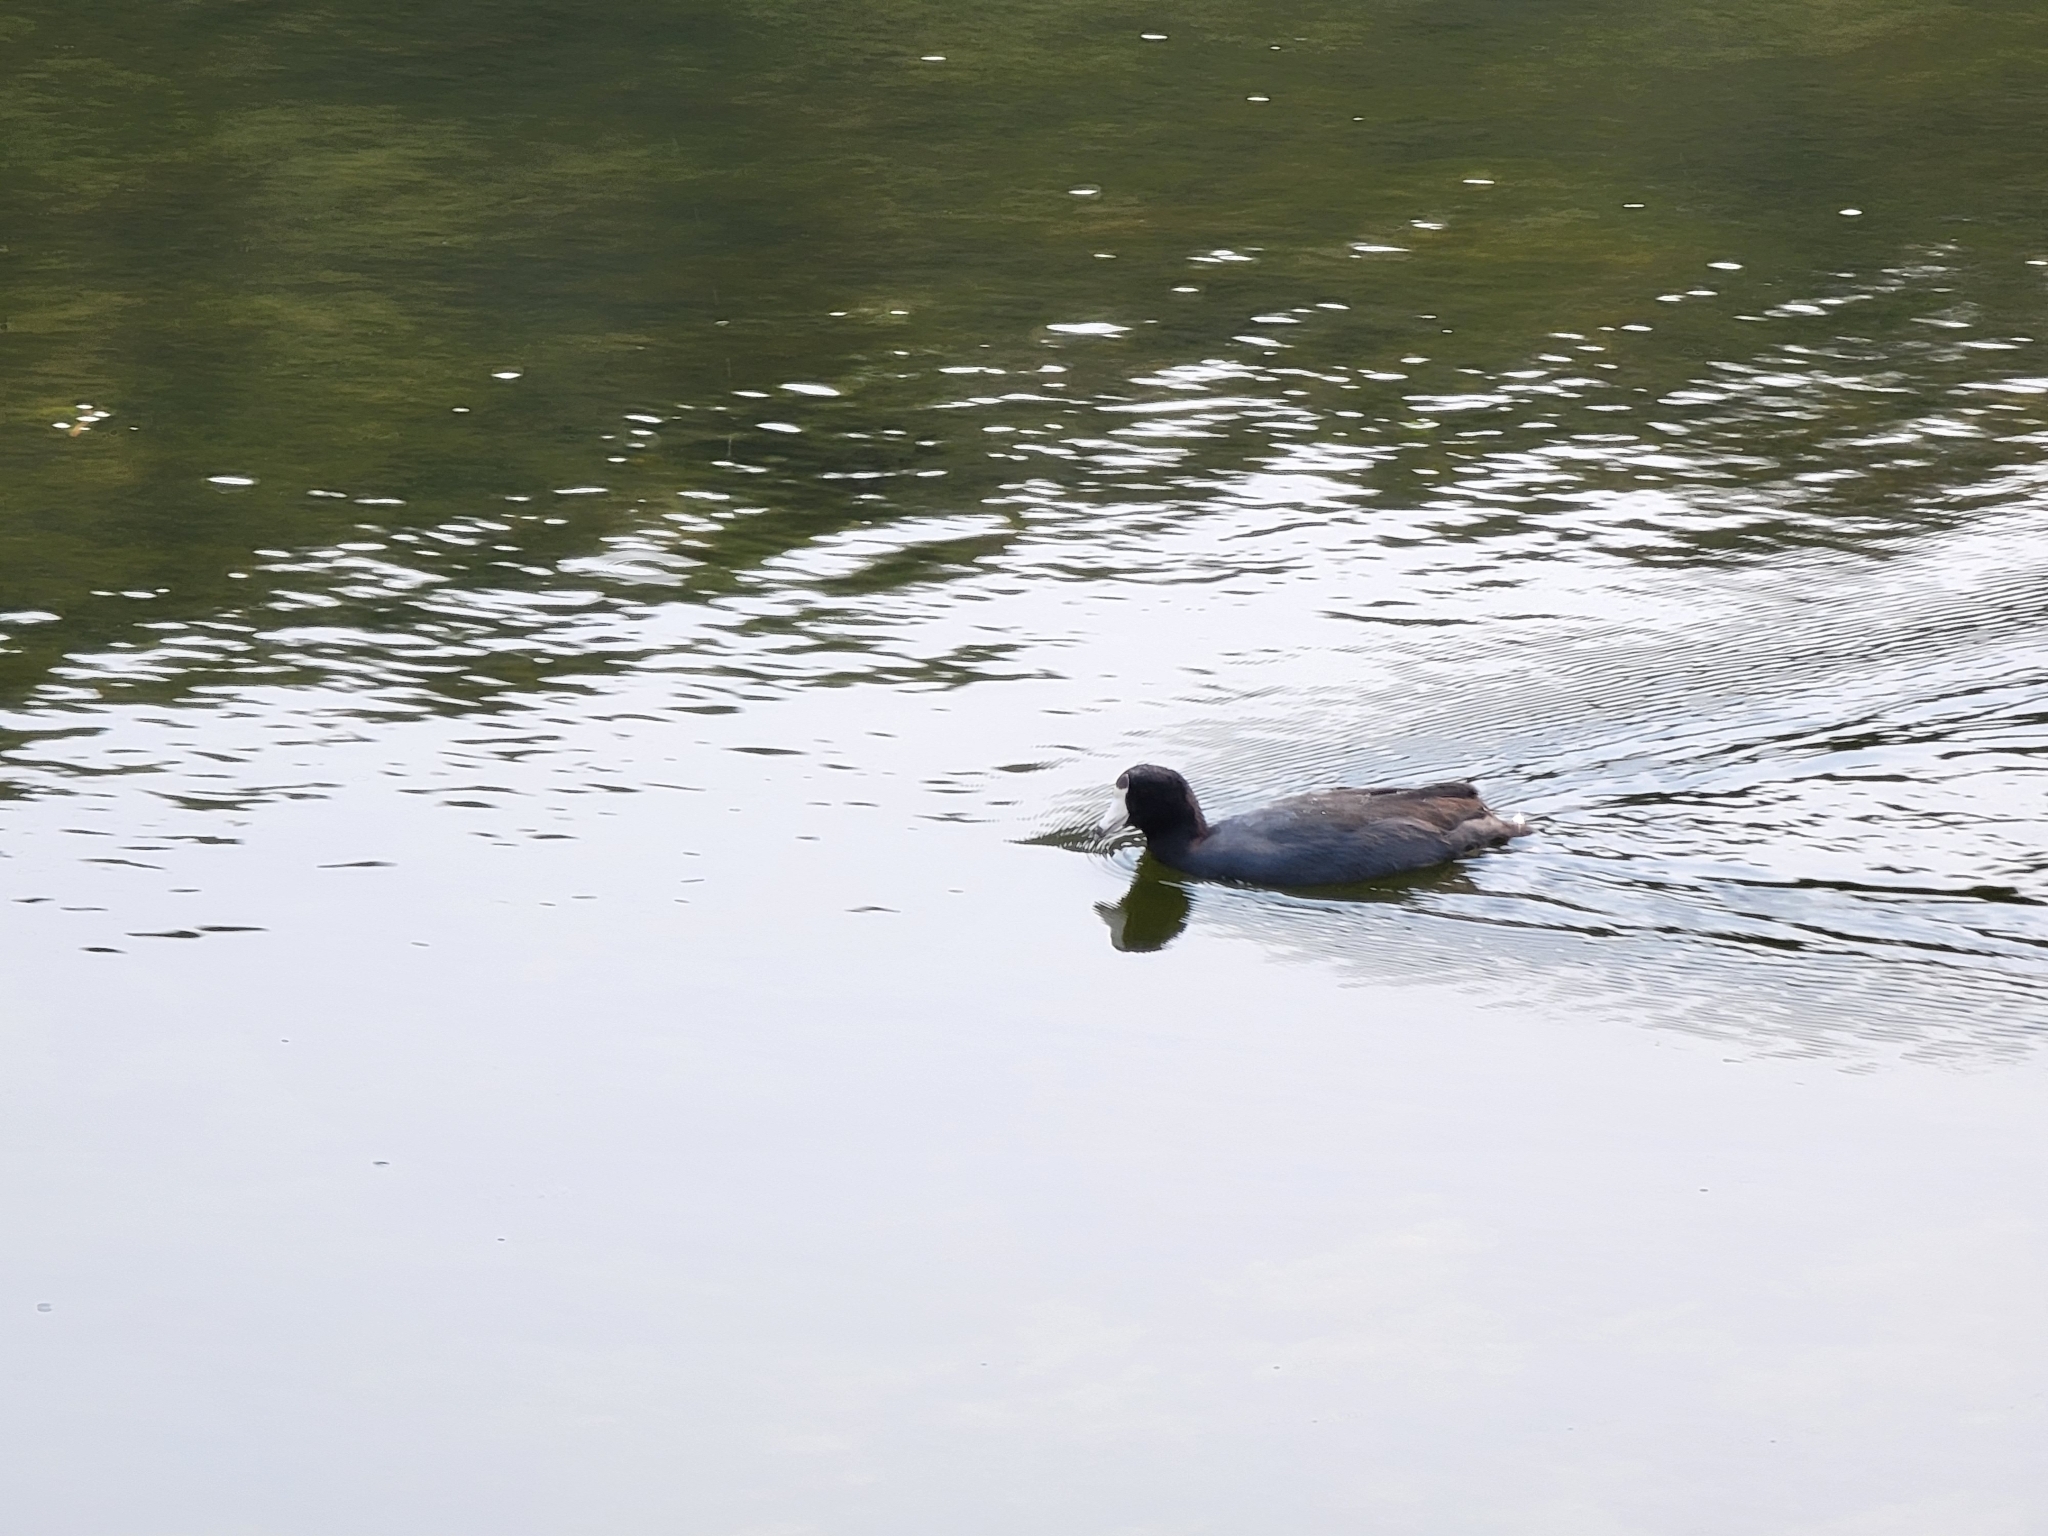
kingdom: Animalia
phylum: Chordata
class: Aves
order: Gruiformes
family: Rallidae
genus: Fulica
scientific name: Fulica americana
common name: American coot
